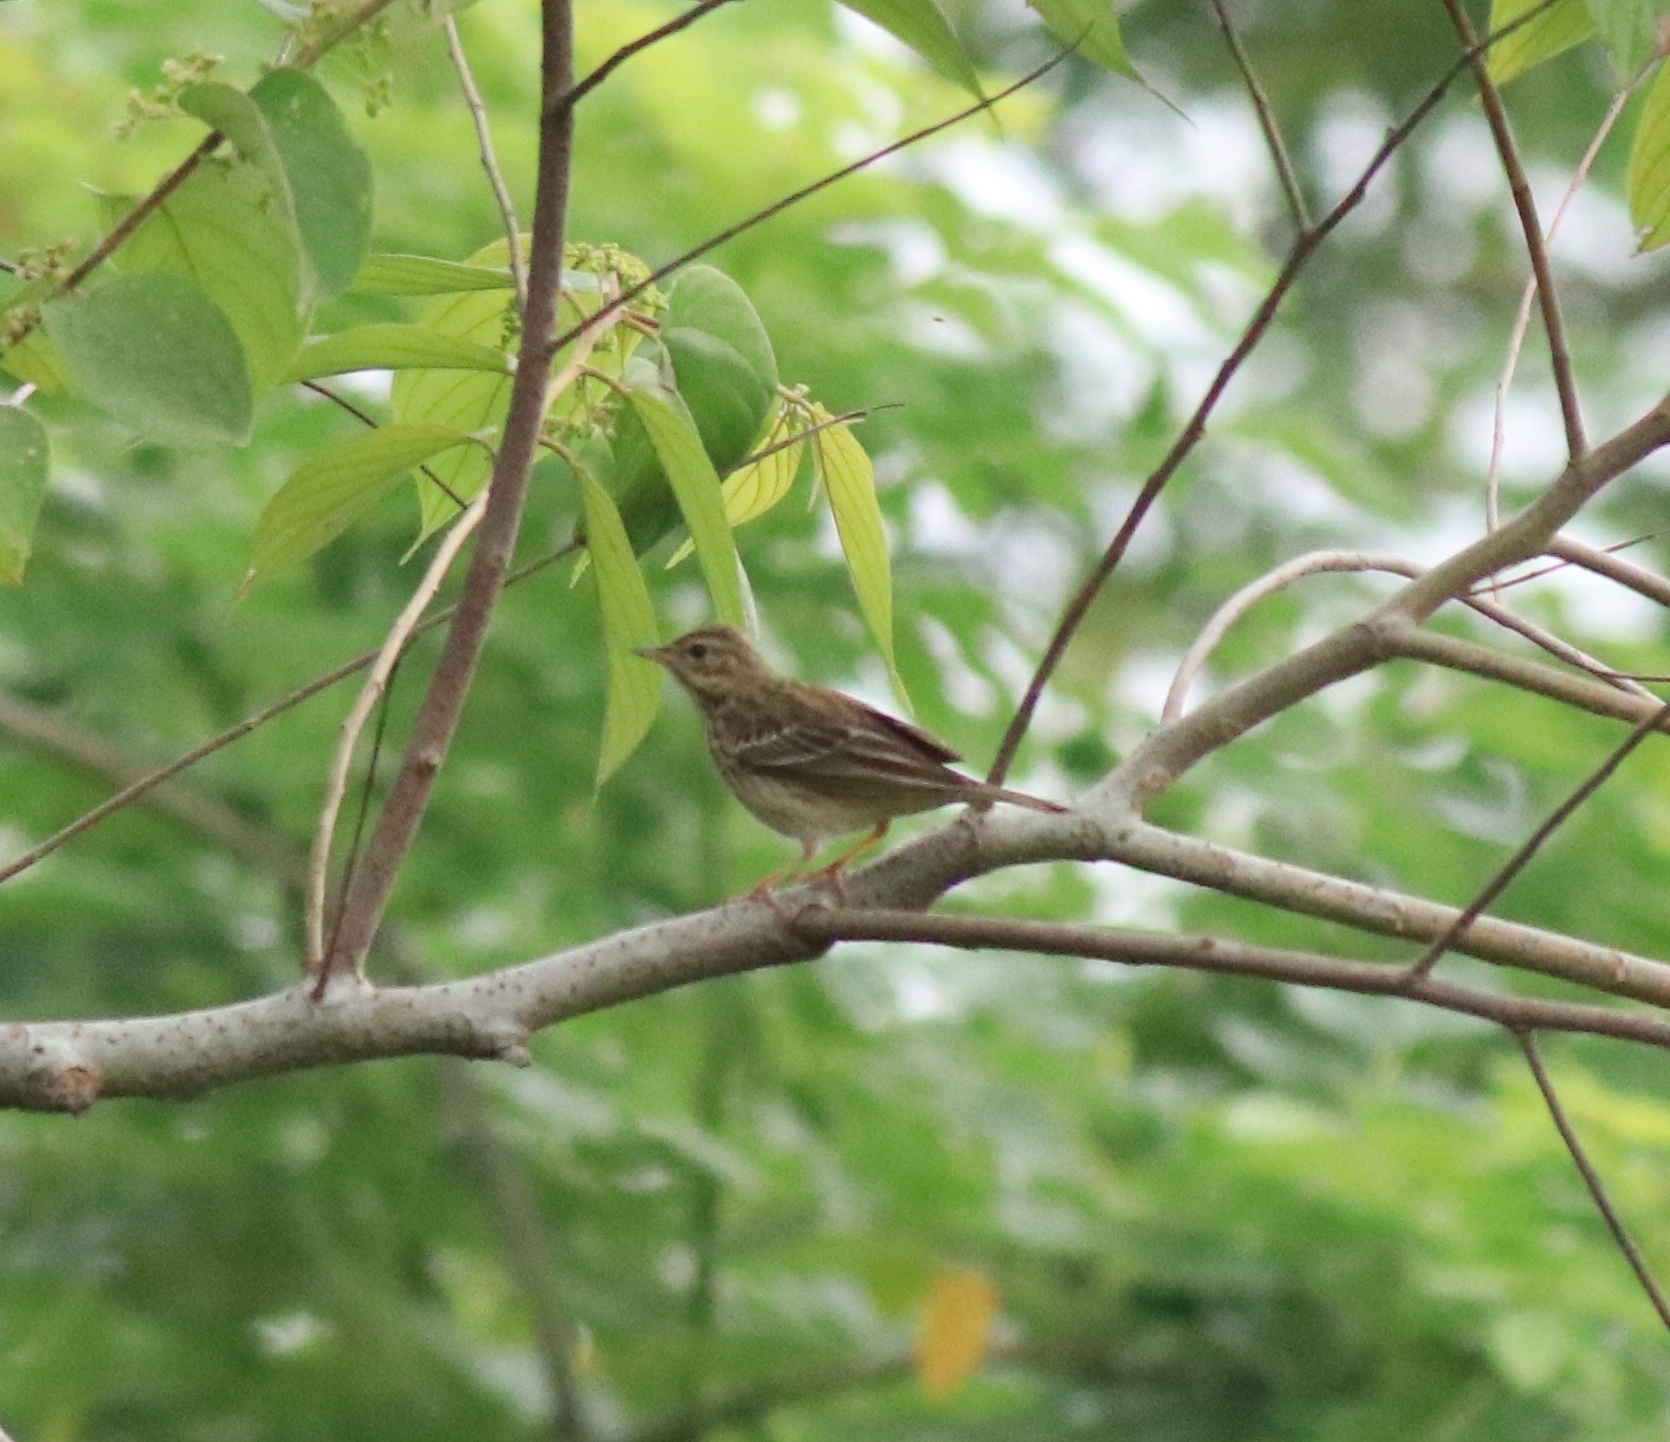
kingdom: Animalia
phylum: Chordata
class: Aves
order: Passeriformes
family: Motacillidae
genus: Anthus
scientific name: Anthus trivialis
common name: Tree pipit
